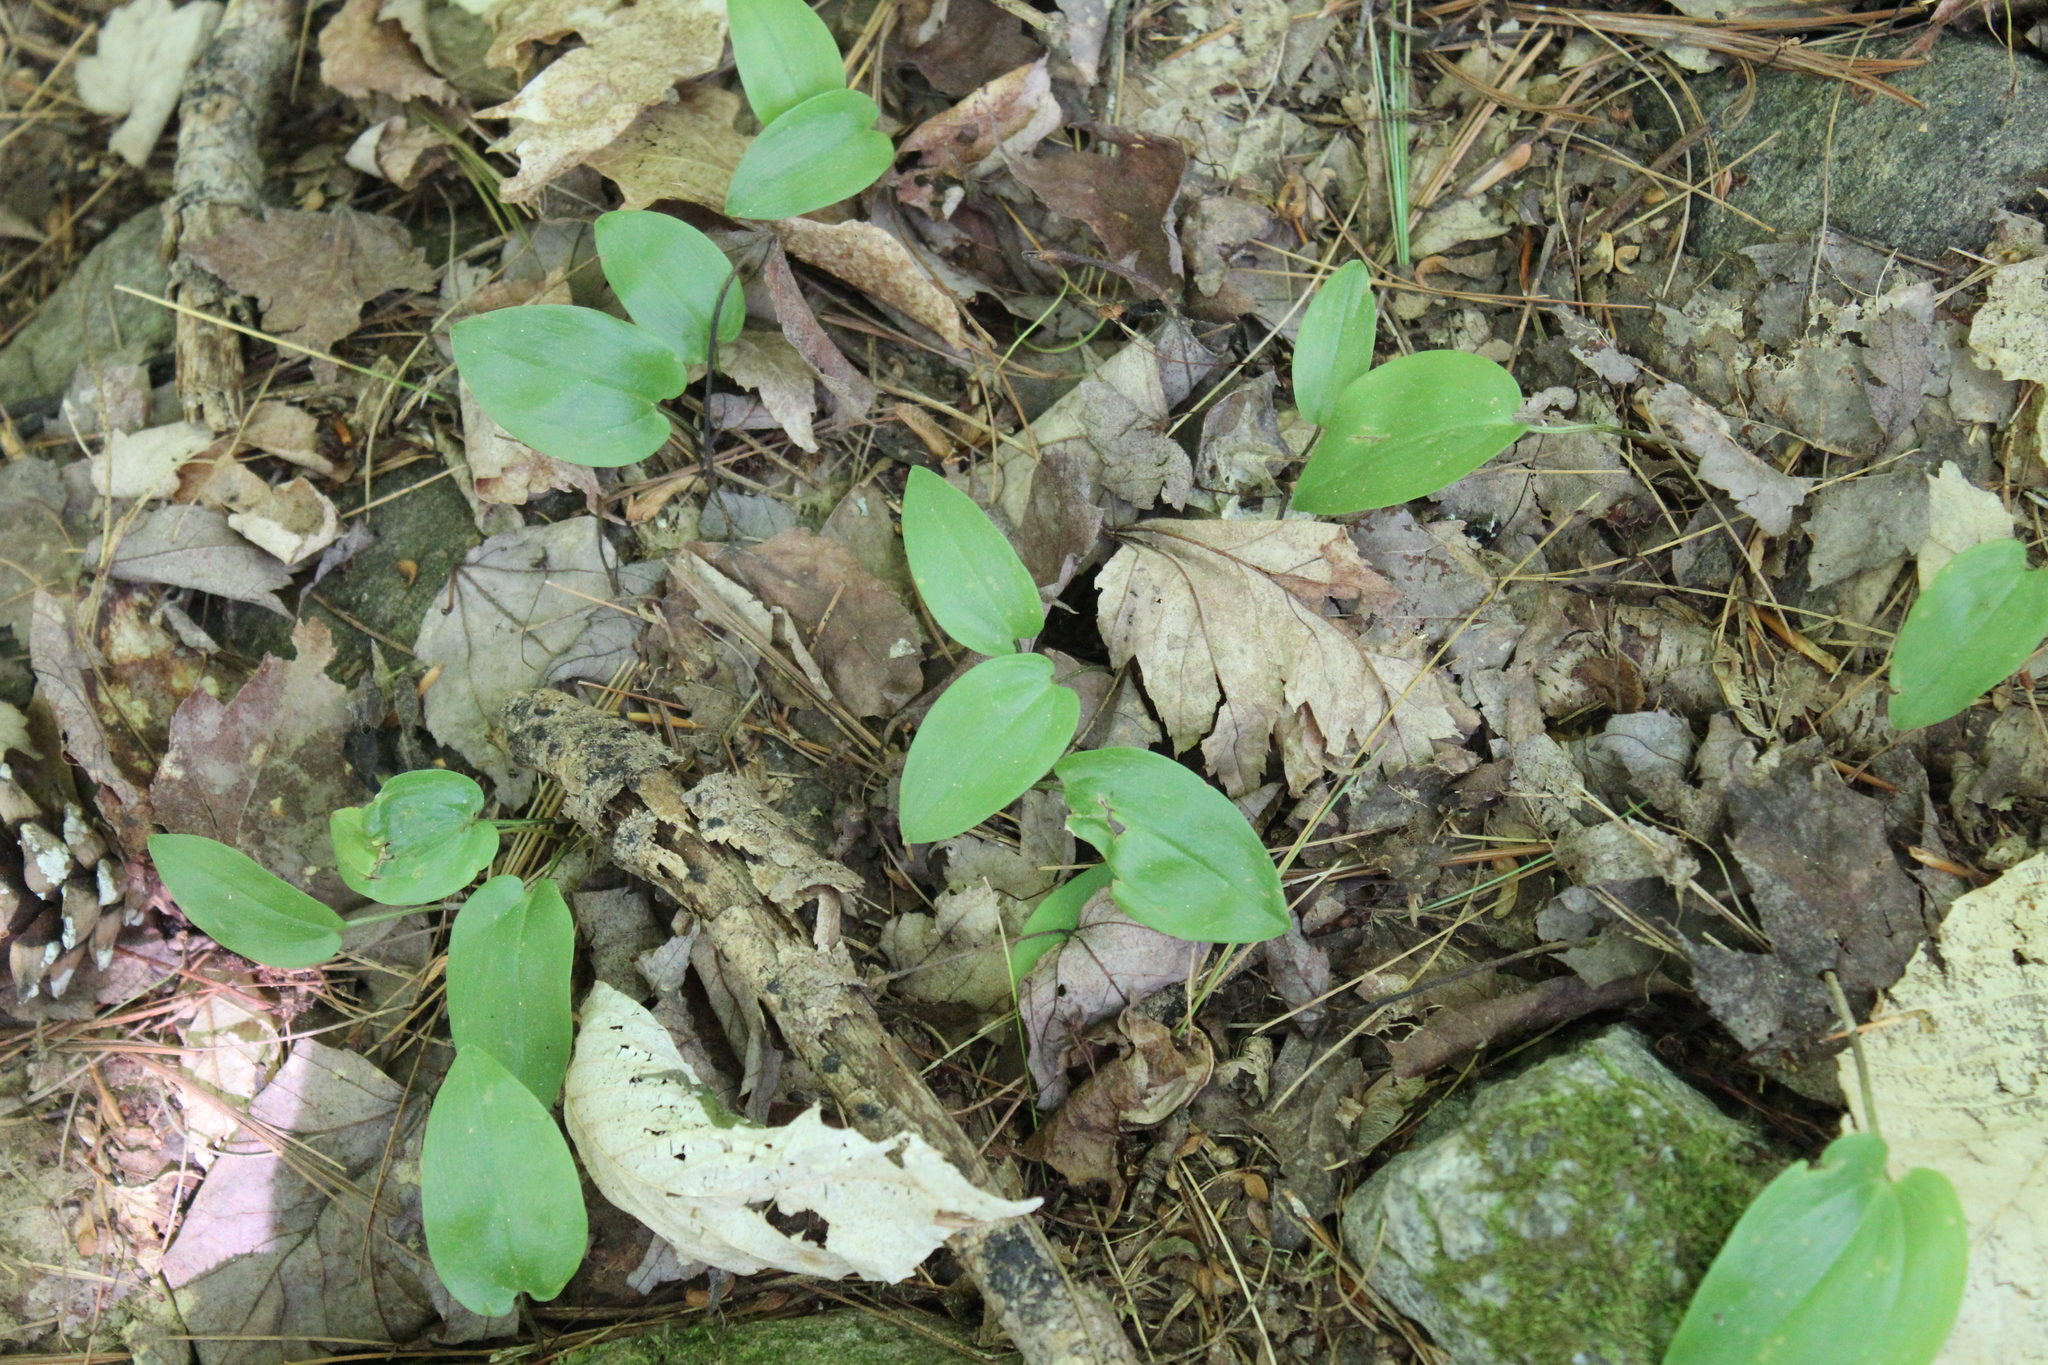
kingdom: Plantae
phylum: Tracheophyta
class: Liliopsida
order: Asparagales
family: Asparagaceae
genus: Maianthemum
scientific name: Maianthemum canadense
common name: False lily-of-the-valley
